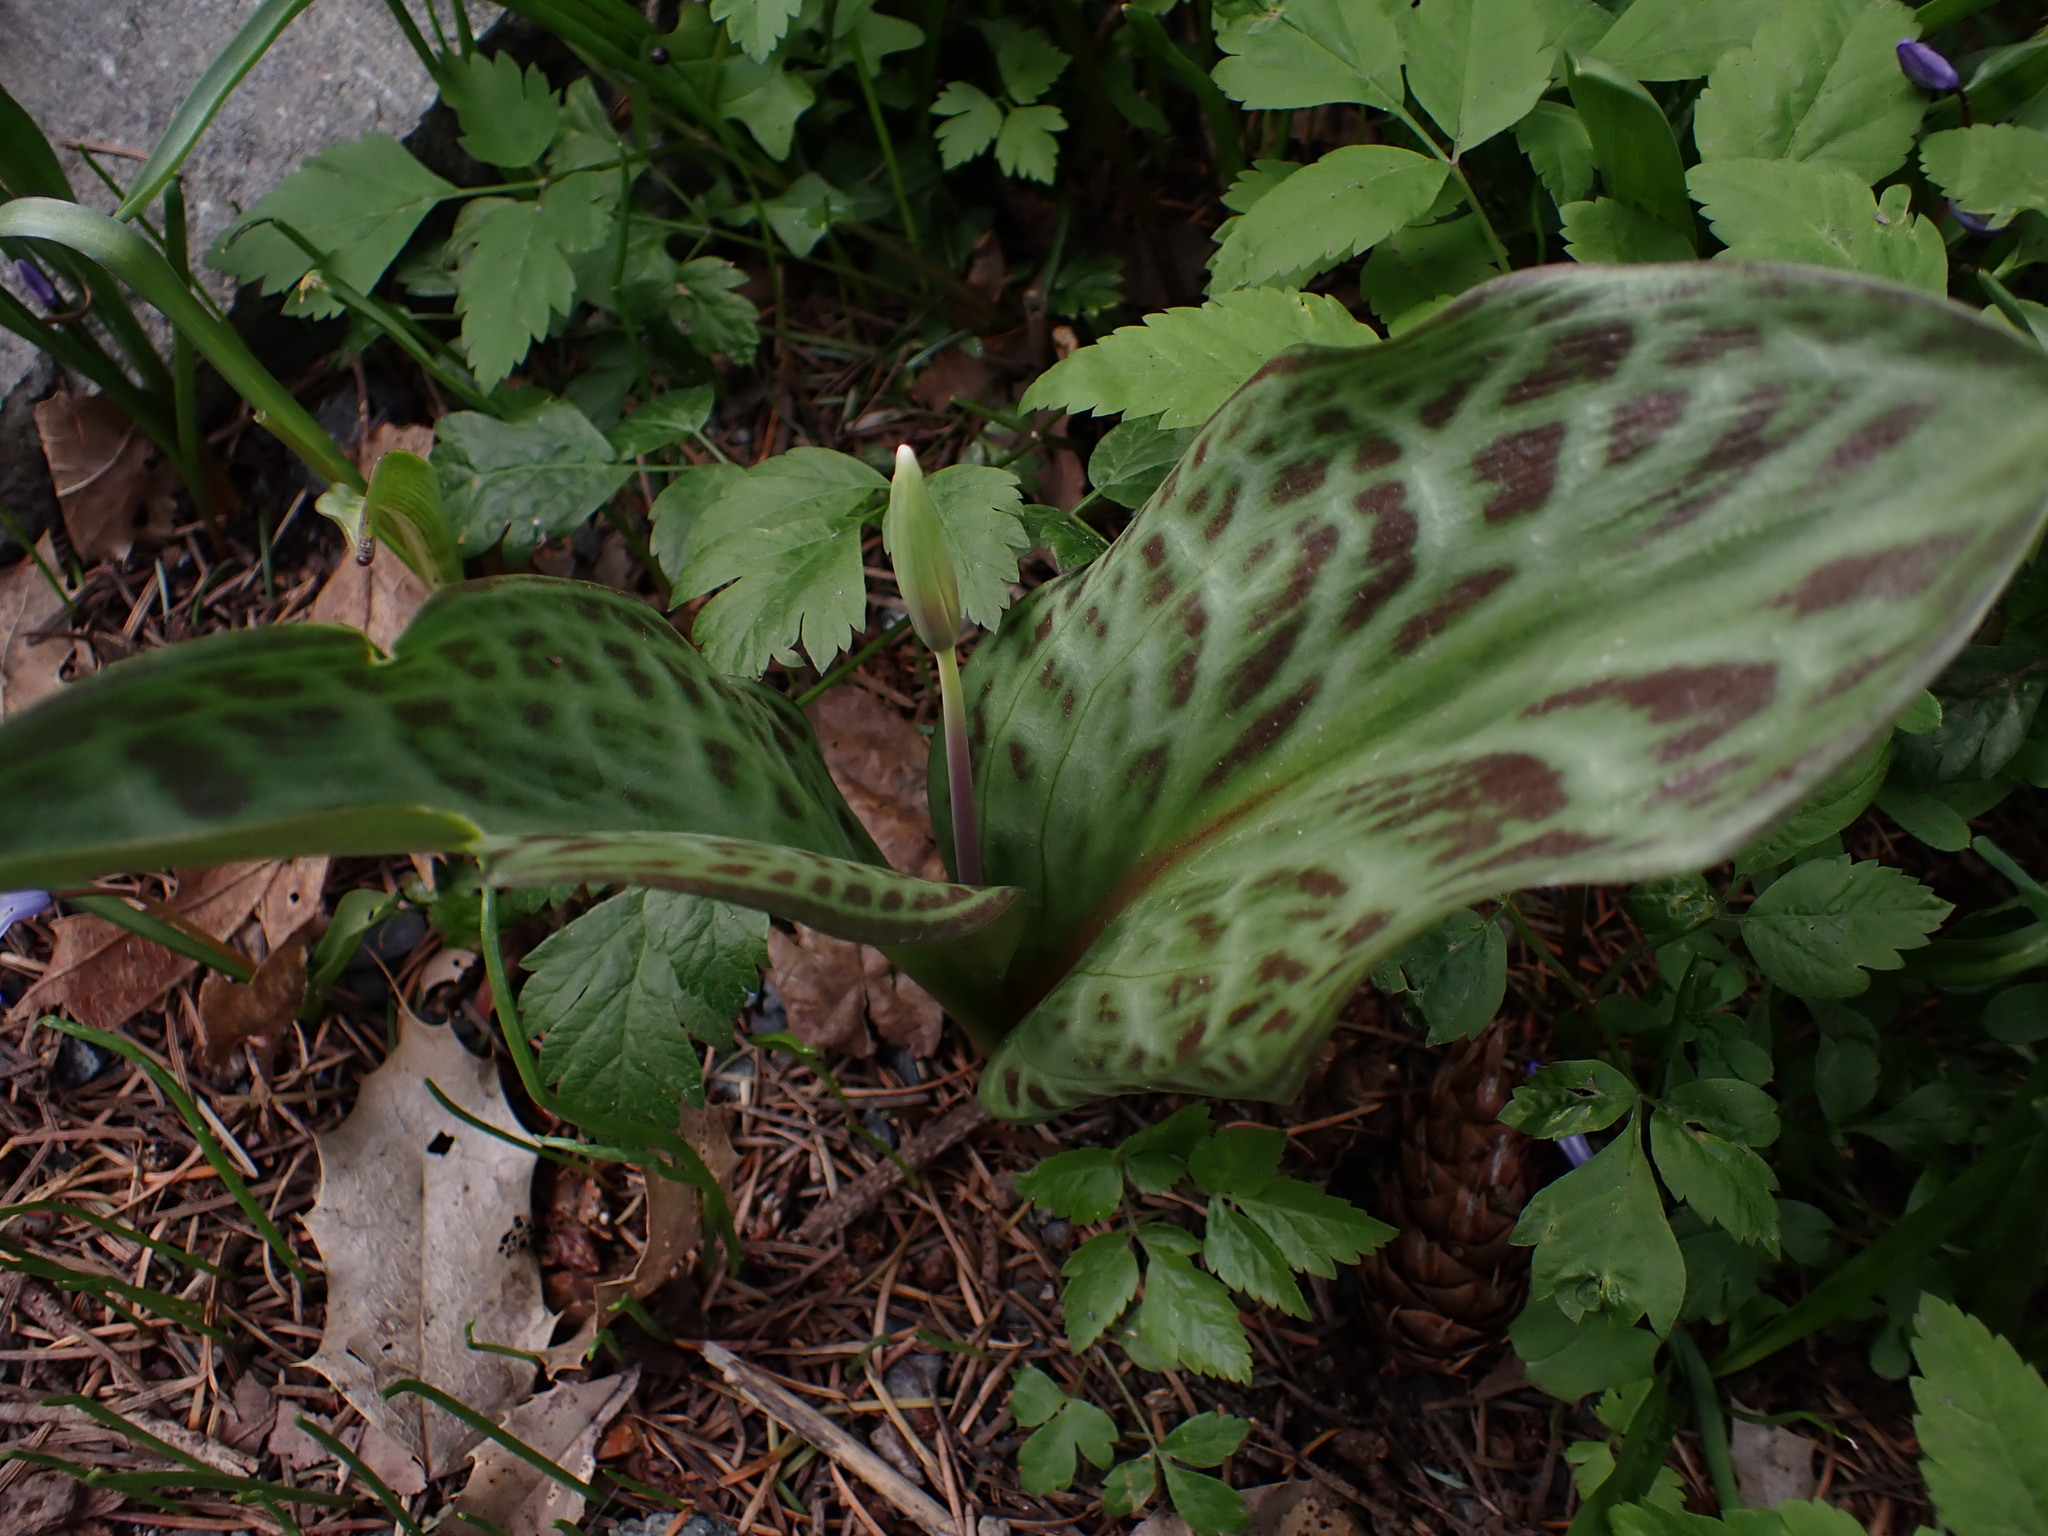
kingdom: Plantae
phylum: Tracheophyta
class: Liliopsida
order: Liliales
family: Liliaceae
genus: Erythronium
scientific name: Erythronium oregonum
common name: Giant adder's-tongue
